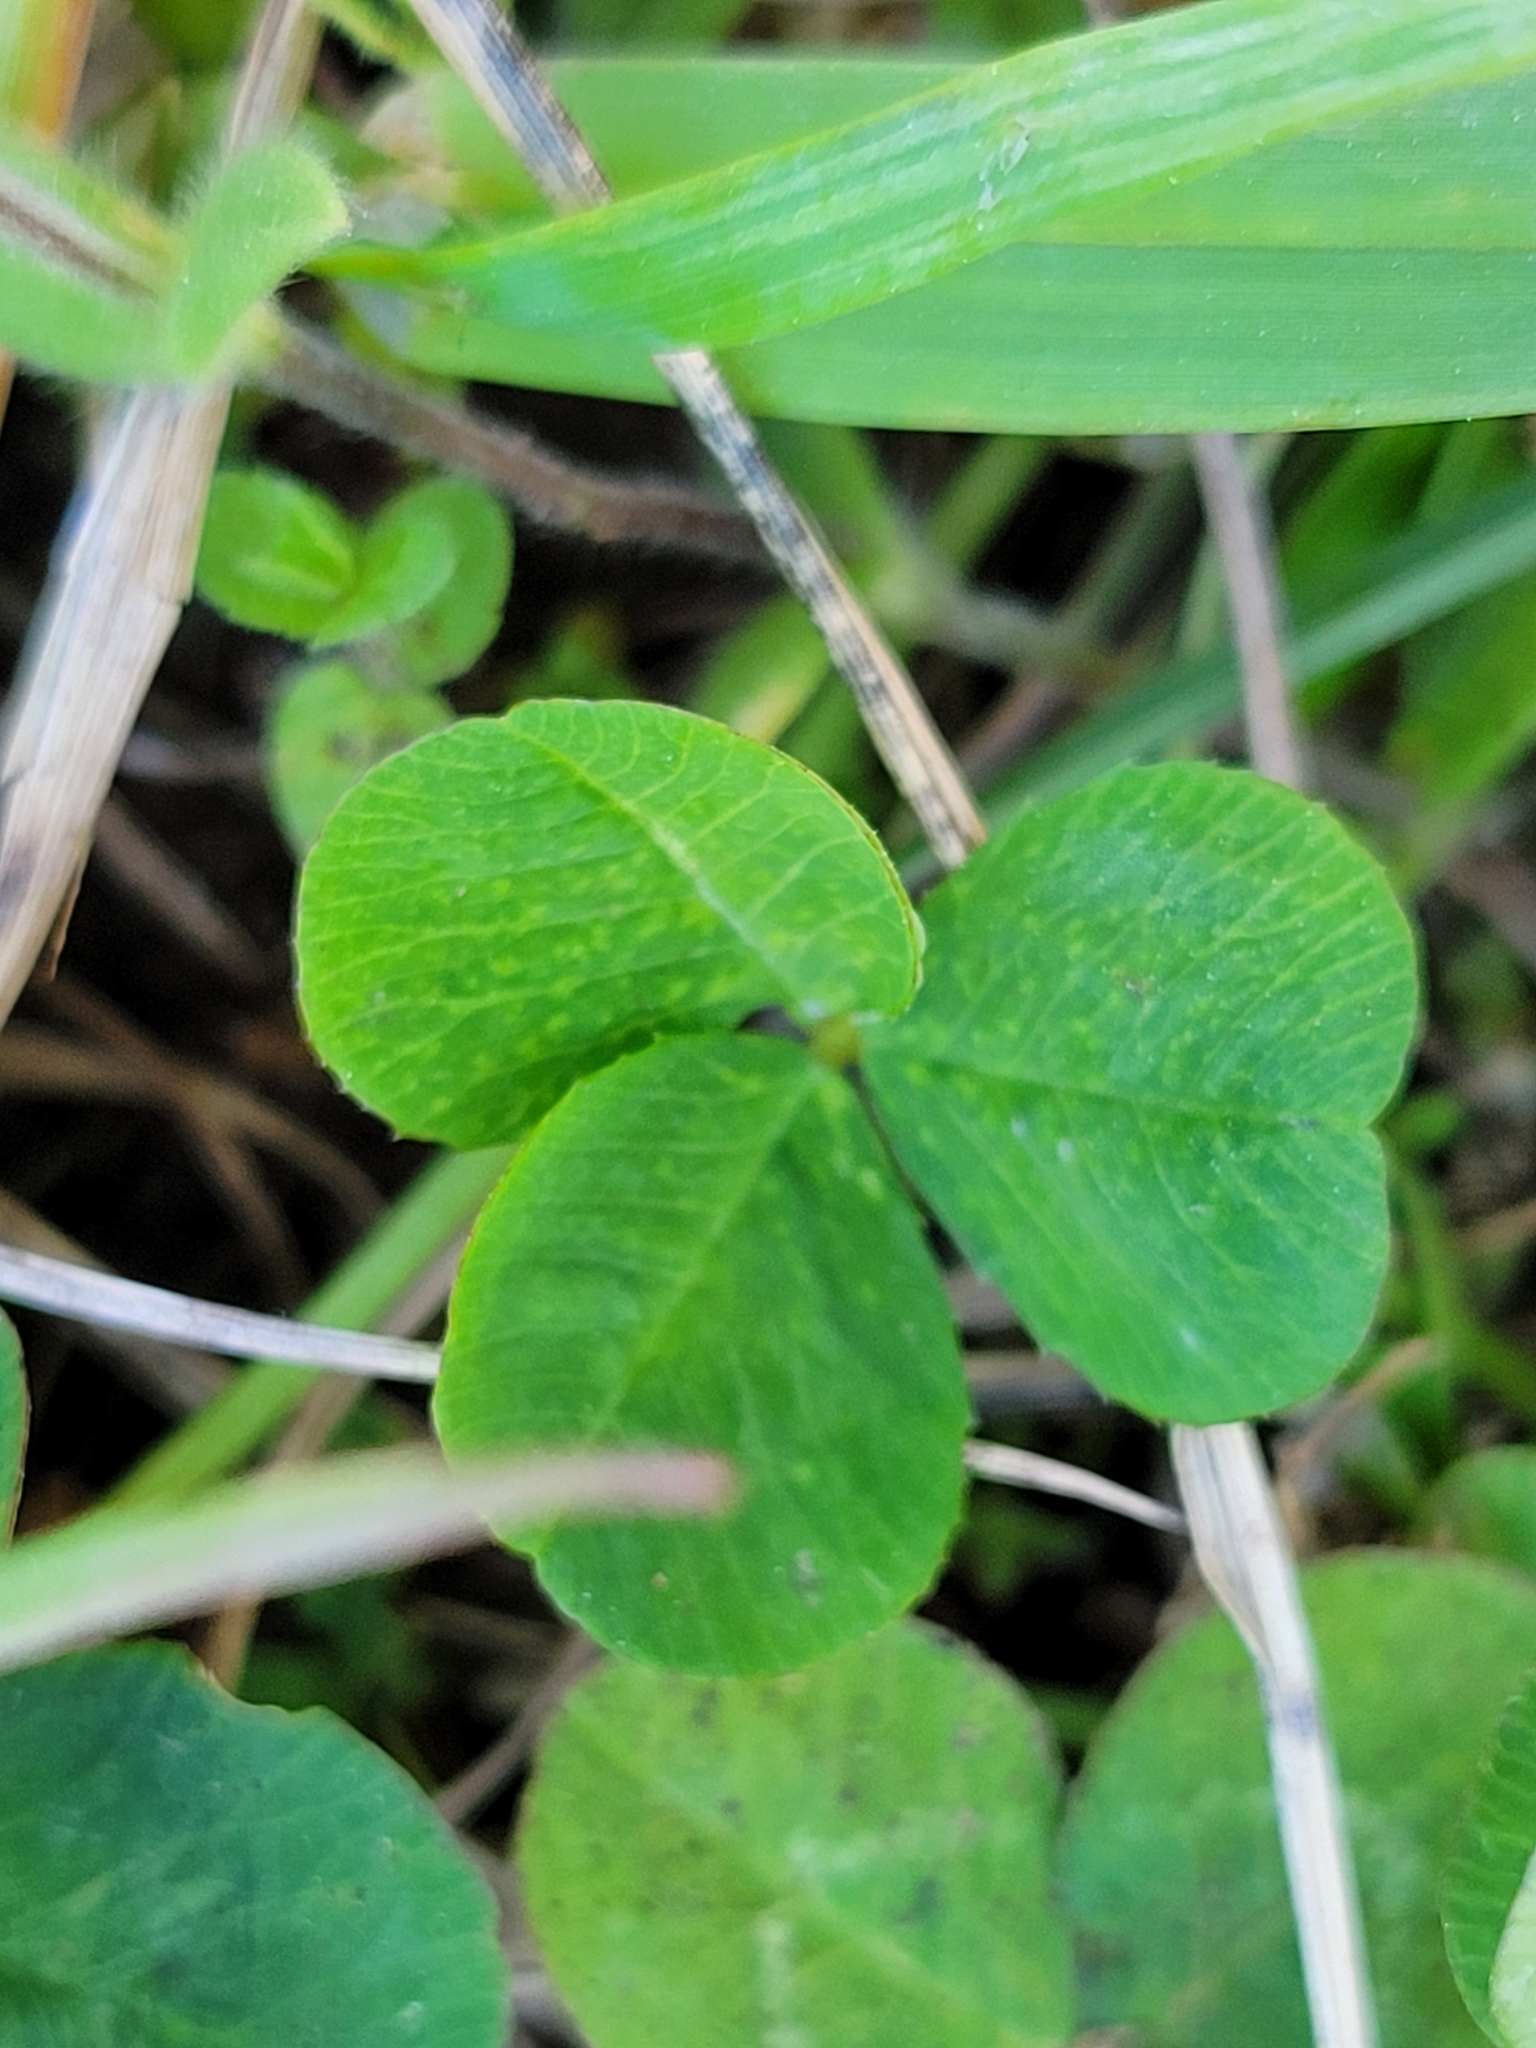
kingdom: Plantae
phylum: Tracheophyta
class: Magnoliopsida
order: Fabales
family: Fabaceae
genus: Trifolium
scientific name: Trifolium repens
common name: White clover
